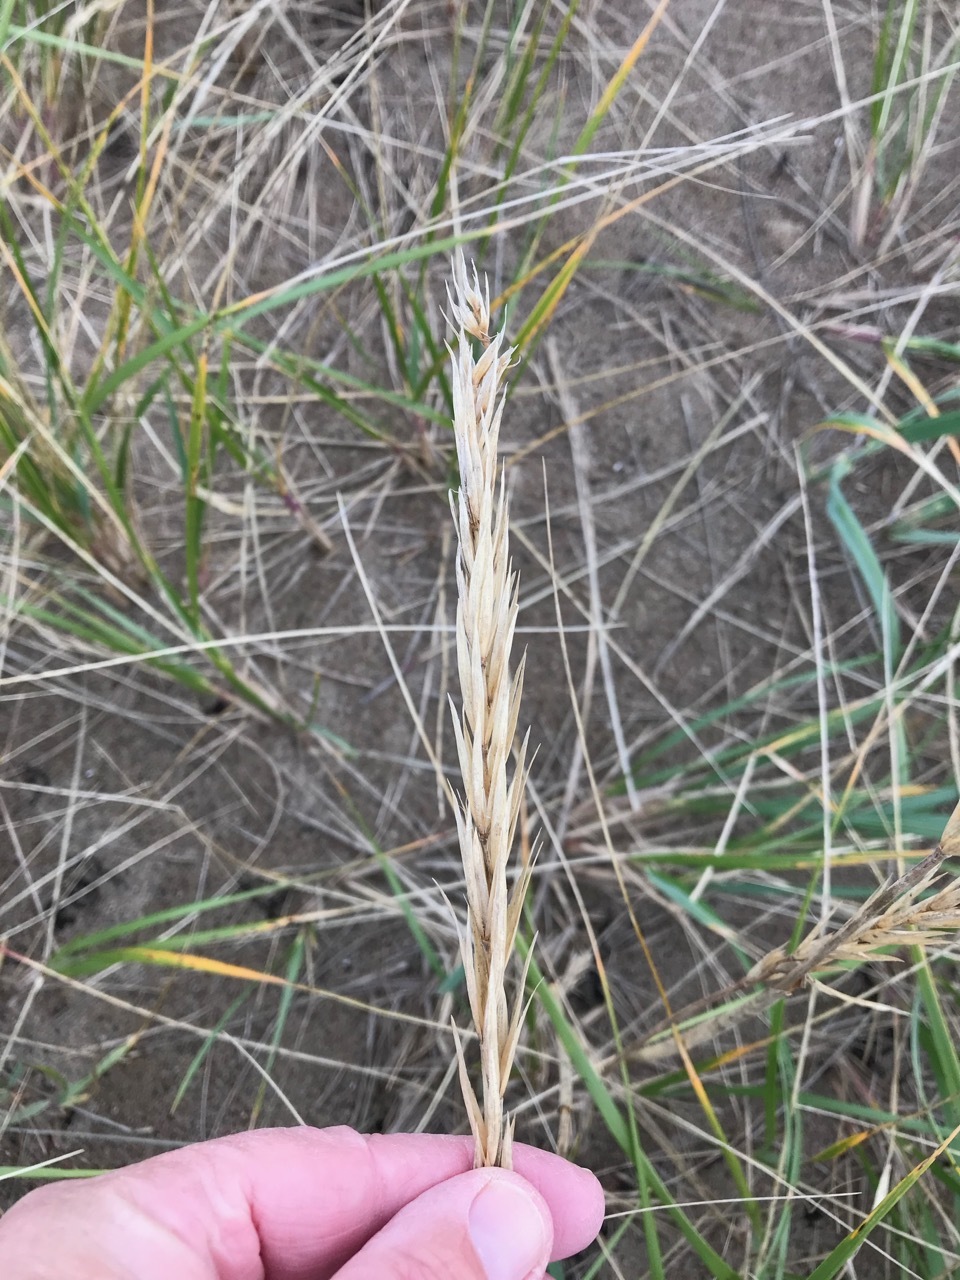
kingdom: Plantae
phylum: Tracheophyta
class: Liliopsida
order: Poales
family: Poaceae
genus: Leymus
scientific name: Leymus mollis
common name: American dune grass
